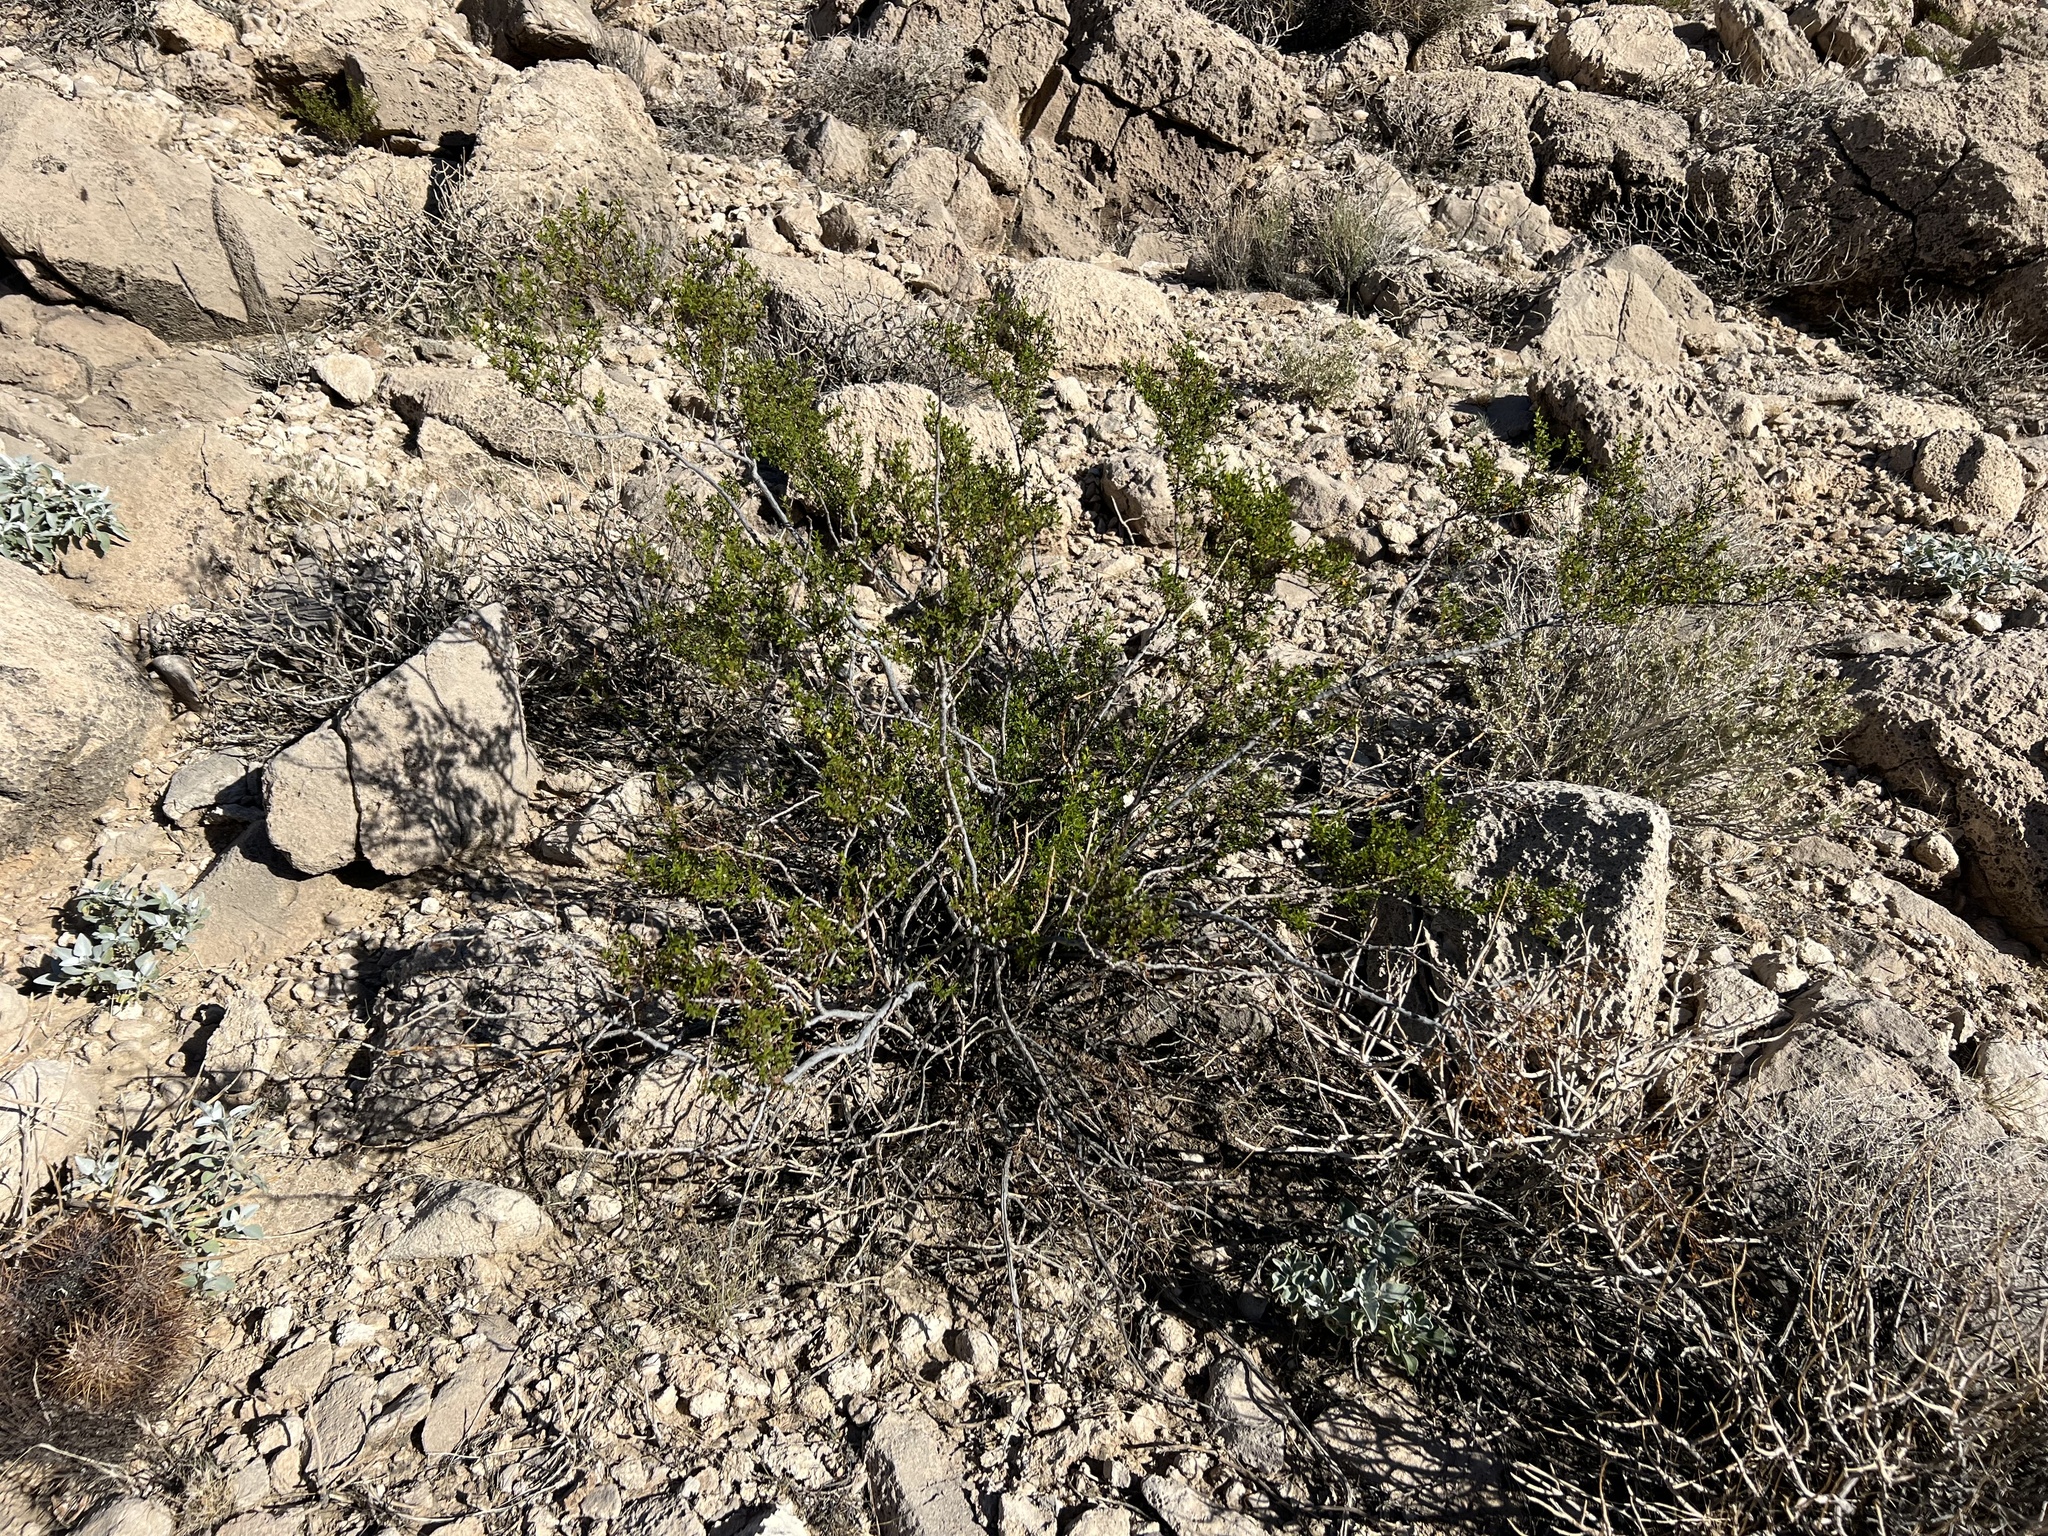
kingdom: Plantae
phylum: Tracheophyta
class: Magnoliopsida
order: Zygophyllales
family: Zygophyllaceae
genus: Larrea
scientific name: Larrea tridentata
